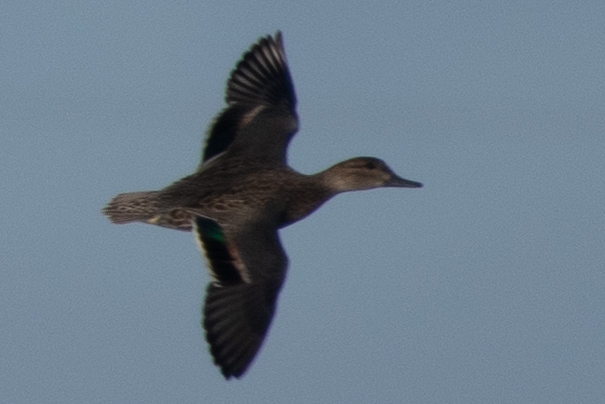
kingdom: Animalia
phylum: Chordata
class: Aves
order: Anseriformes
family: Anatidae
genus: Anas
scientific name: Anas crecca
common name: Eurasian teal
